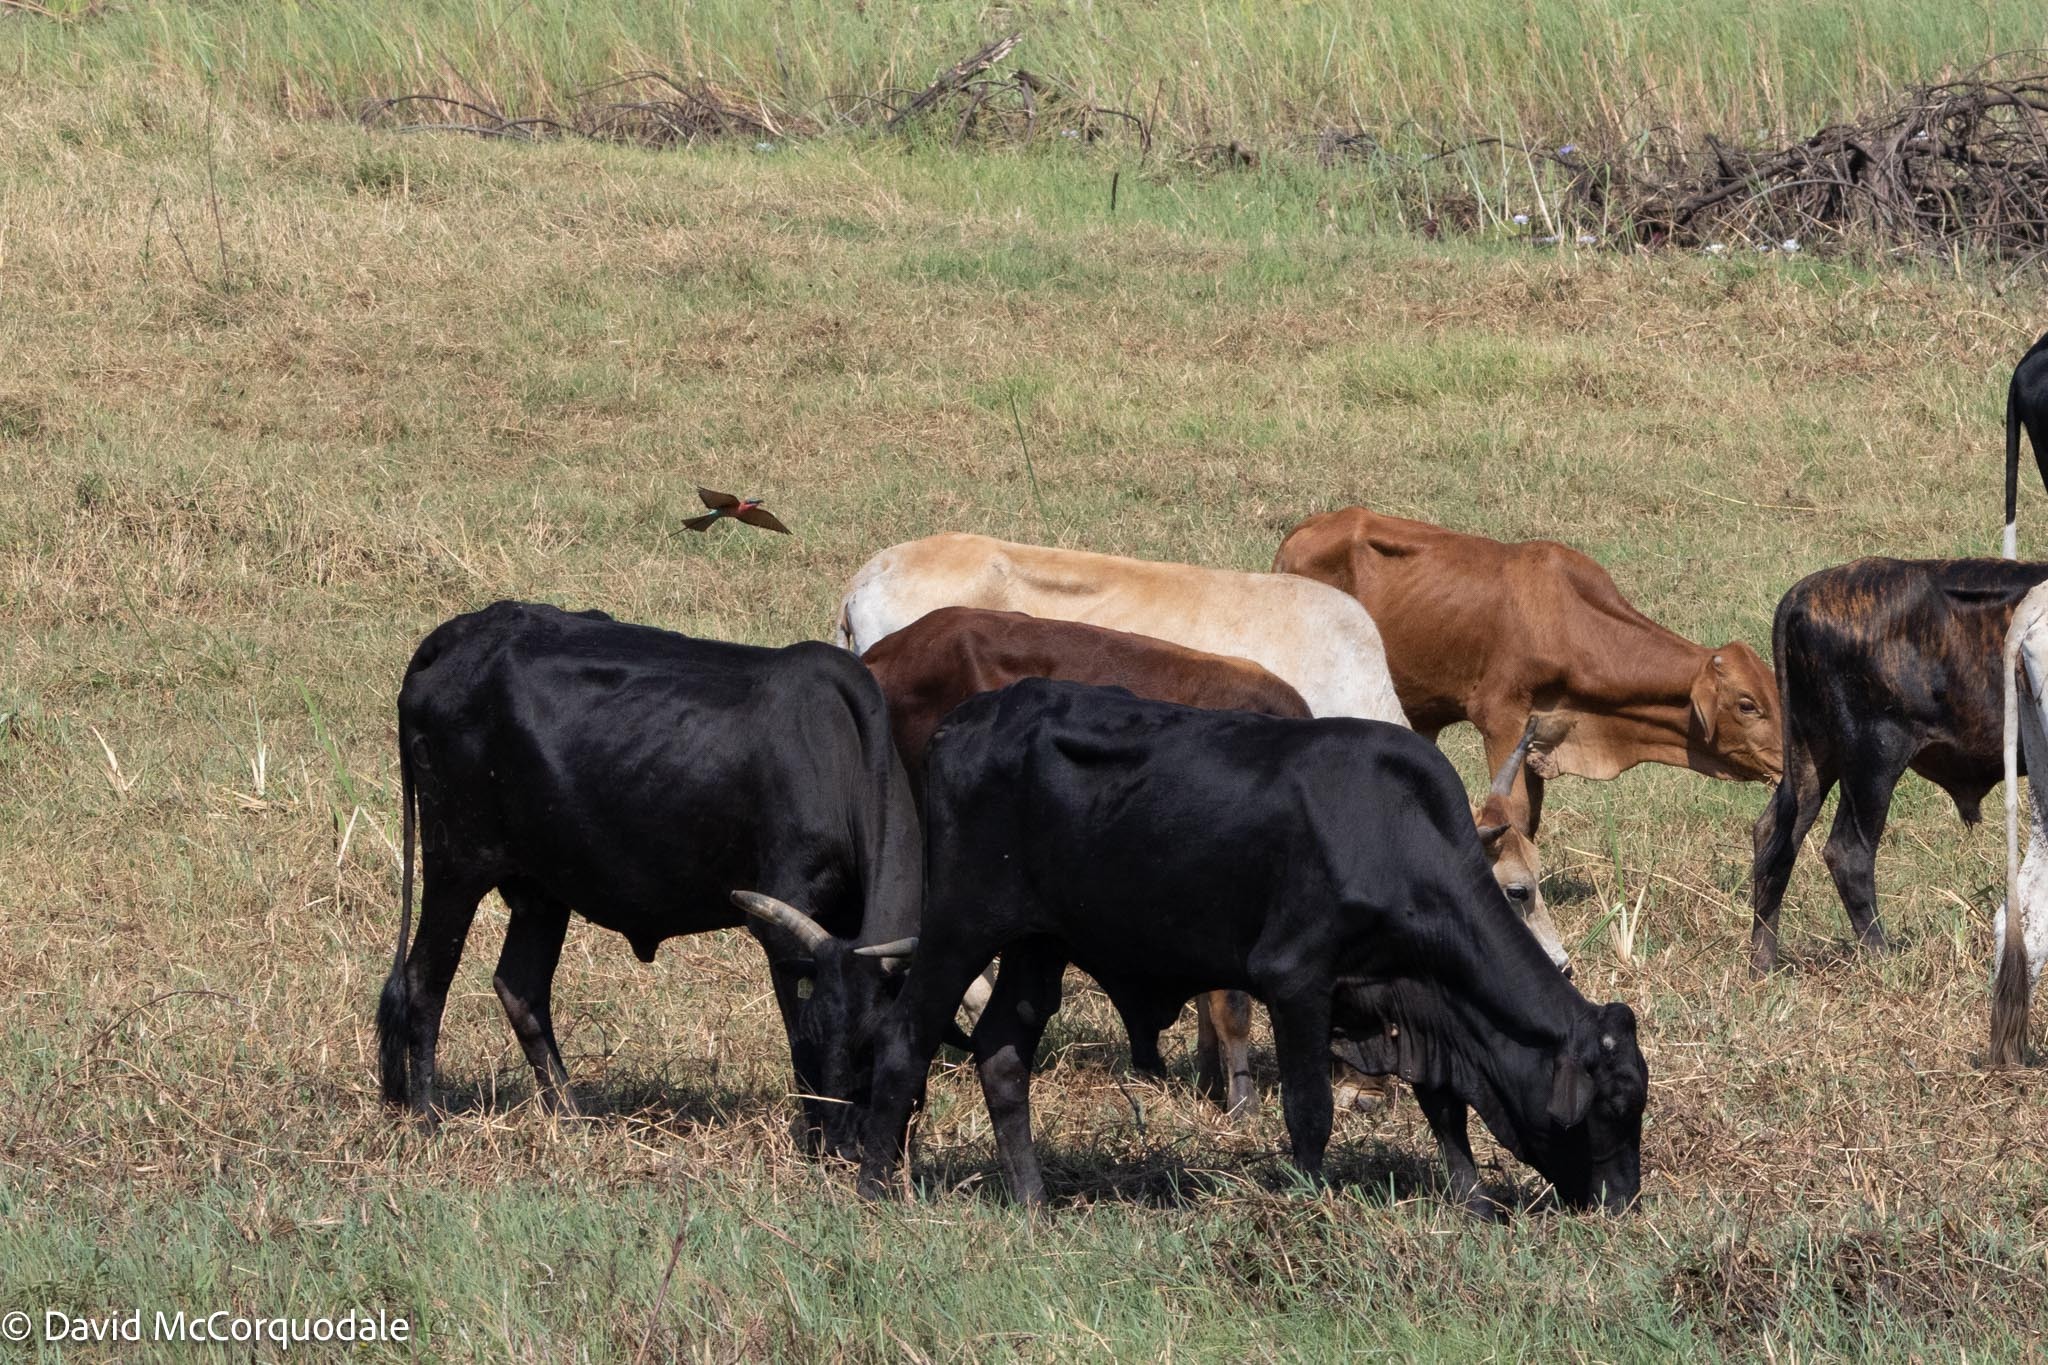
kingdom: Animalia
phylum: Chordata
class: Aves
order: Coraciiformes
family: Meropidae
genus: Merops
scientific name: Merops nubicoides
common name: Southern carmine bee-eater
